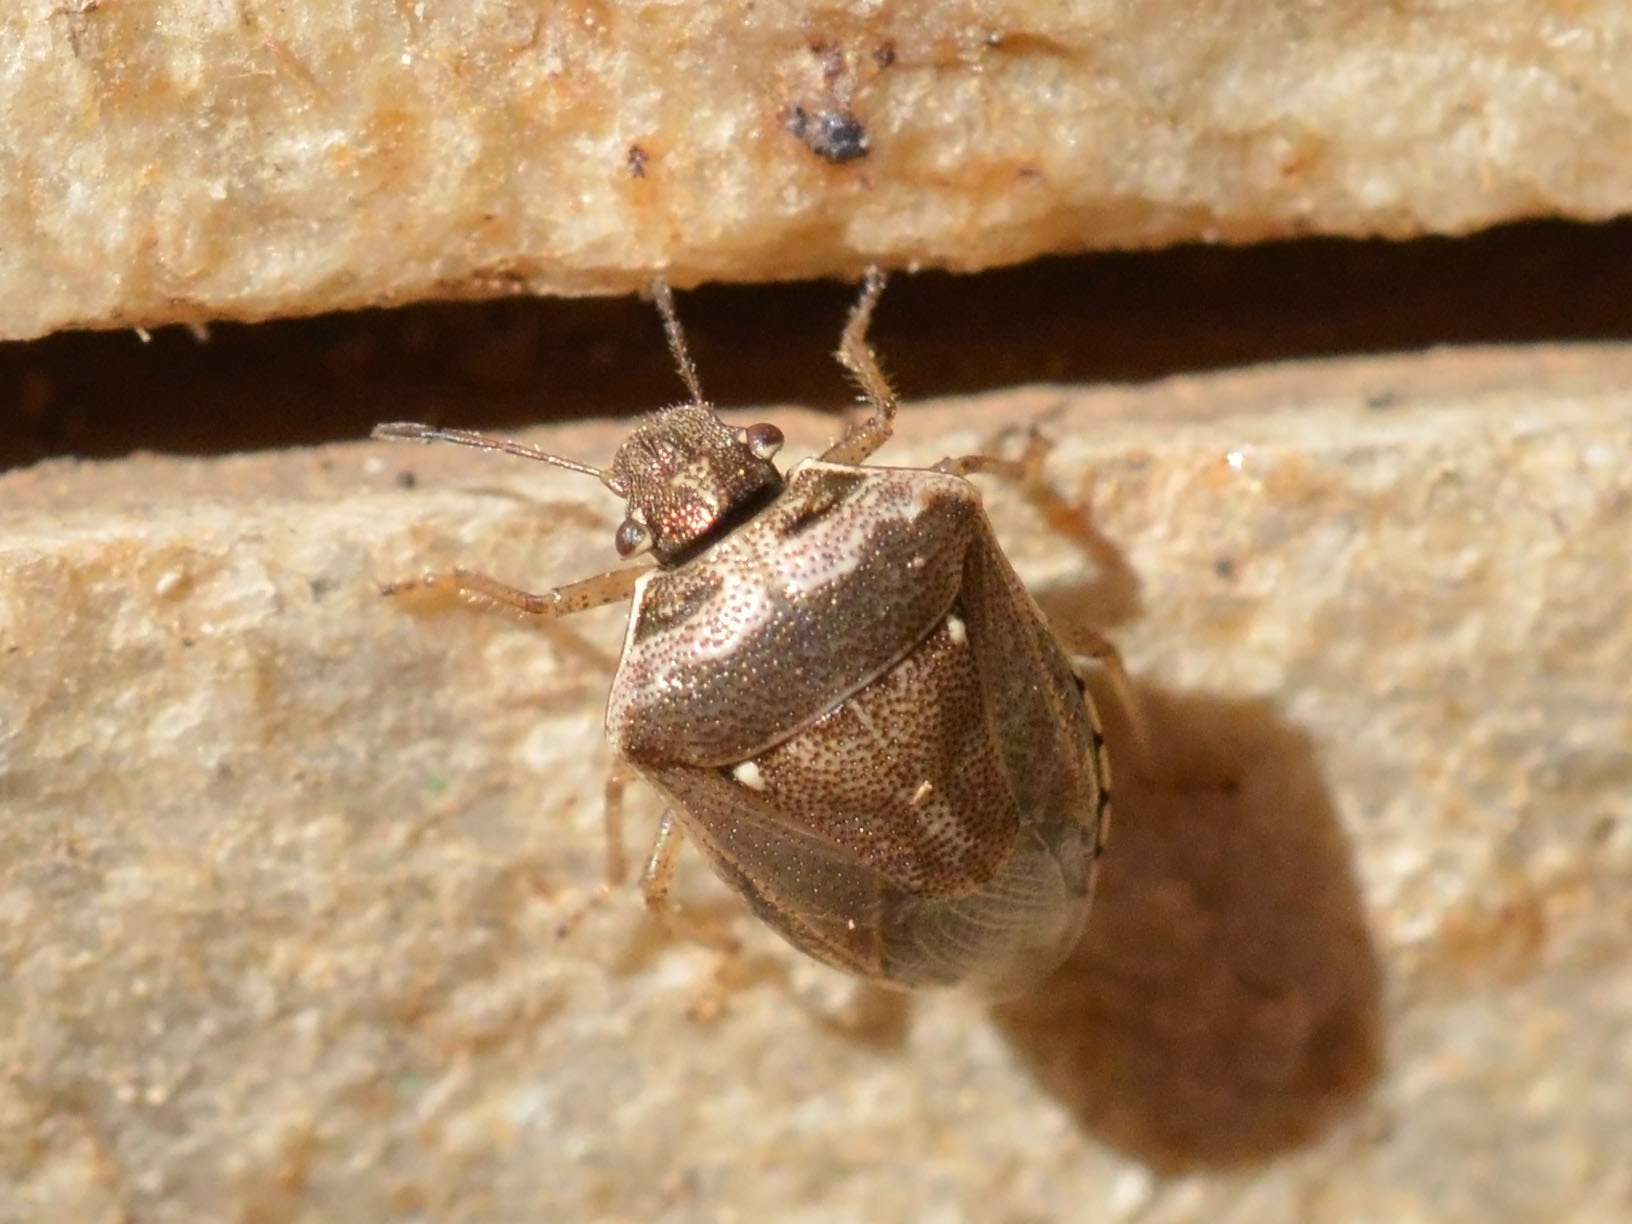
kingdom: Animalia
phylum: Arthropoda
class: Insecta
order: Hemiptera
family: Pentatomidae
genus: Eysarcoris
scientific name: Eysarcoris ventralis
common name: White-spotted stink bug
